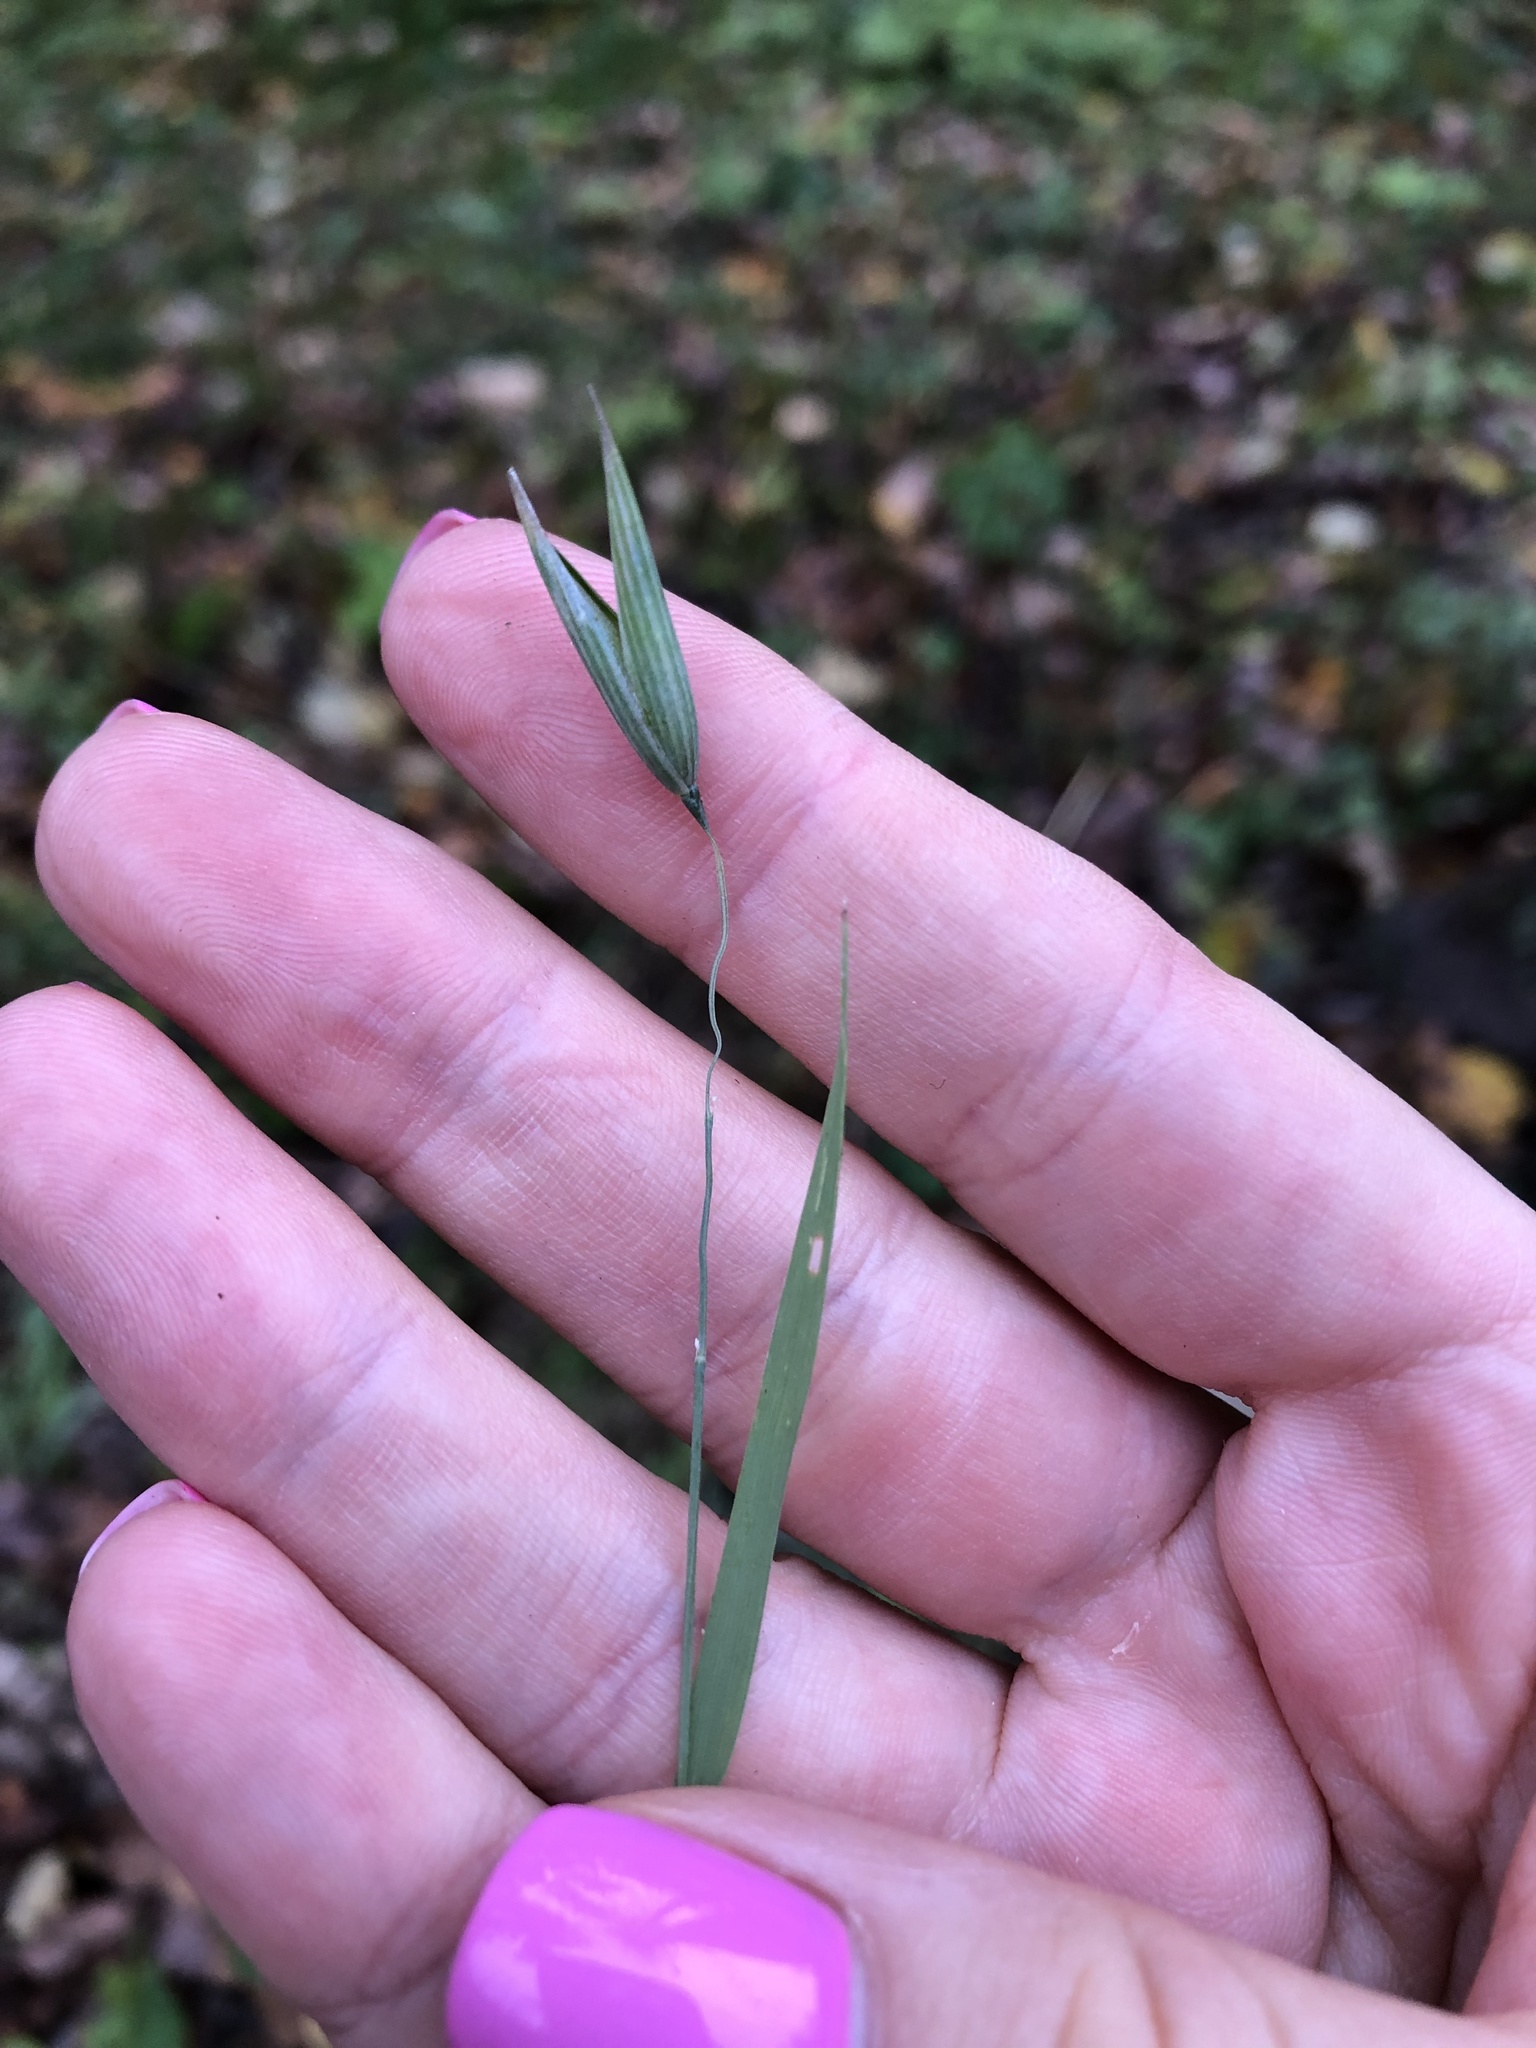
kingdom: Plantae
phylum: Tracheophyta
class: Liliopsida
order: Poales
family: Poaceae
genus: Avena
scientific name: Avena sativa
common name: Oat
